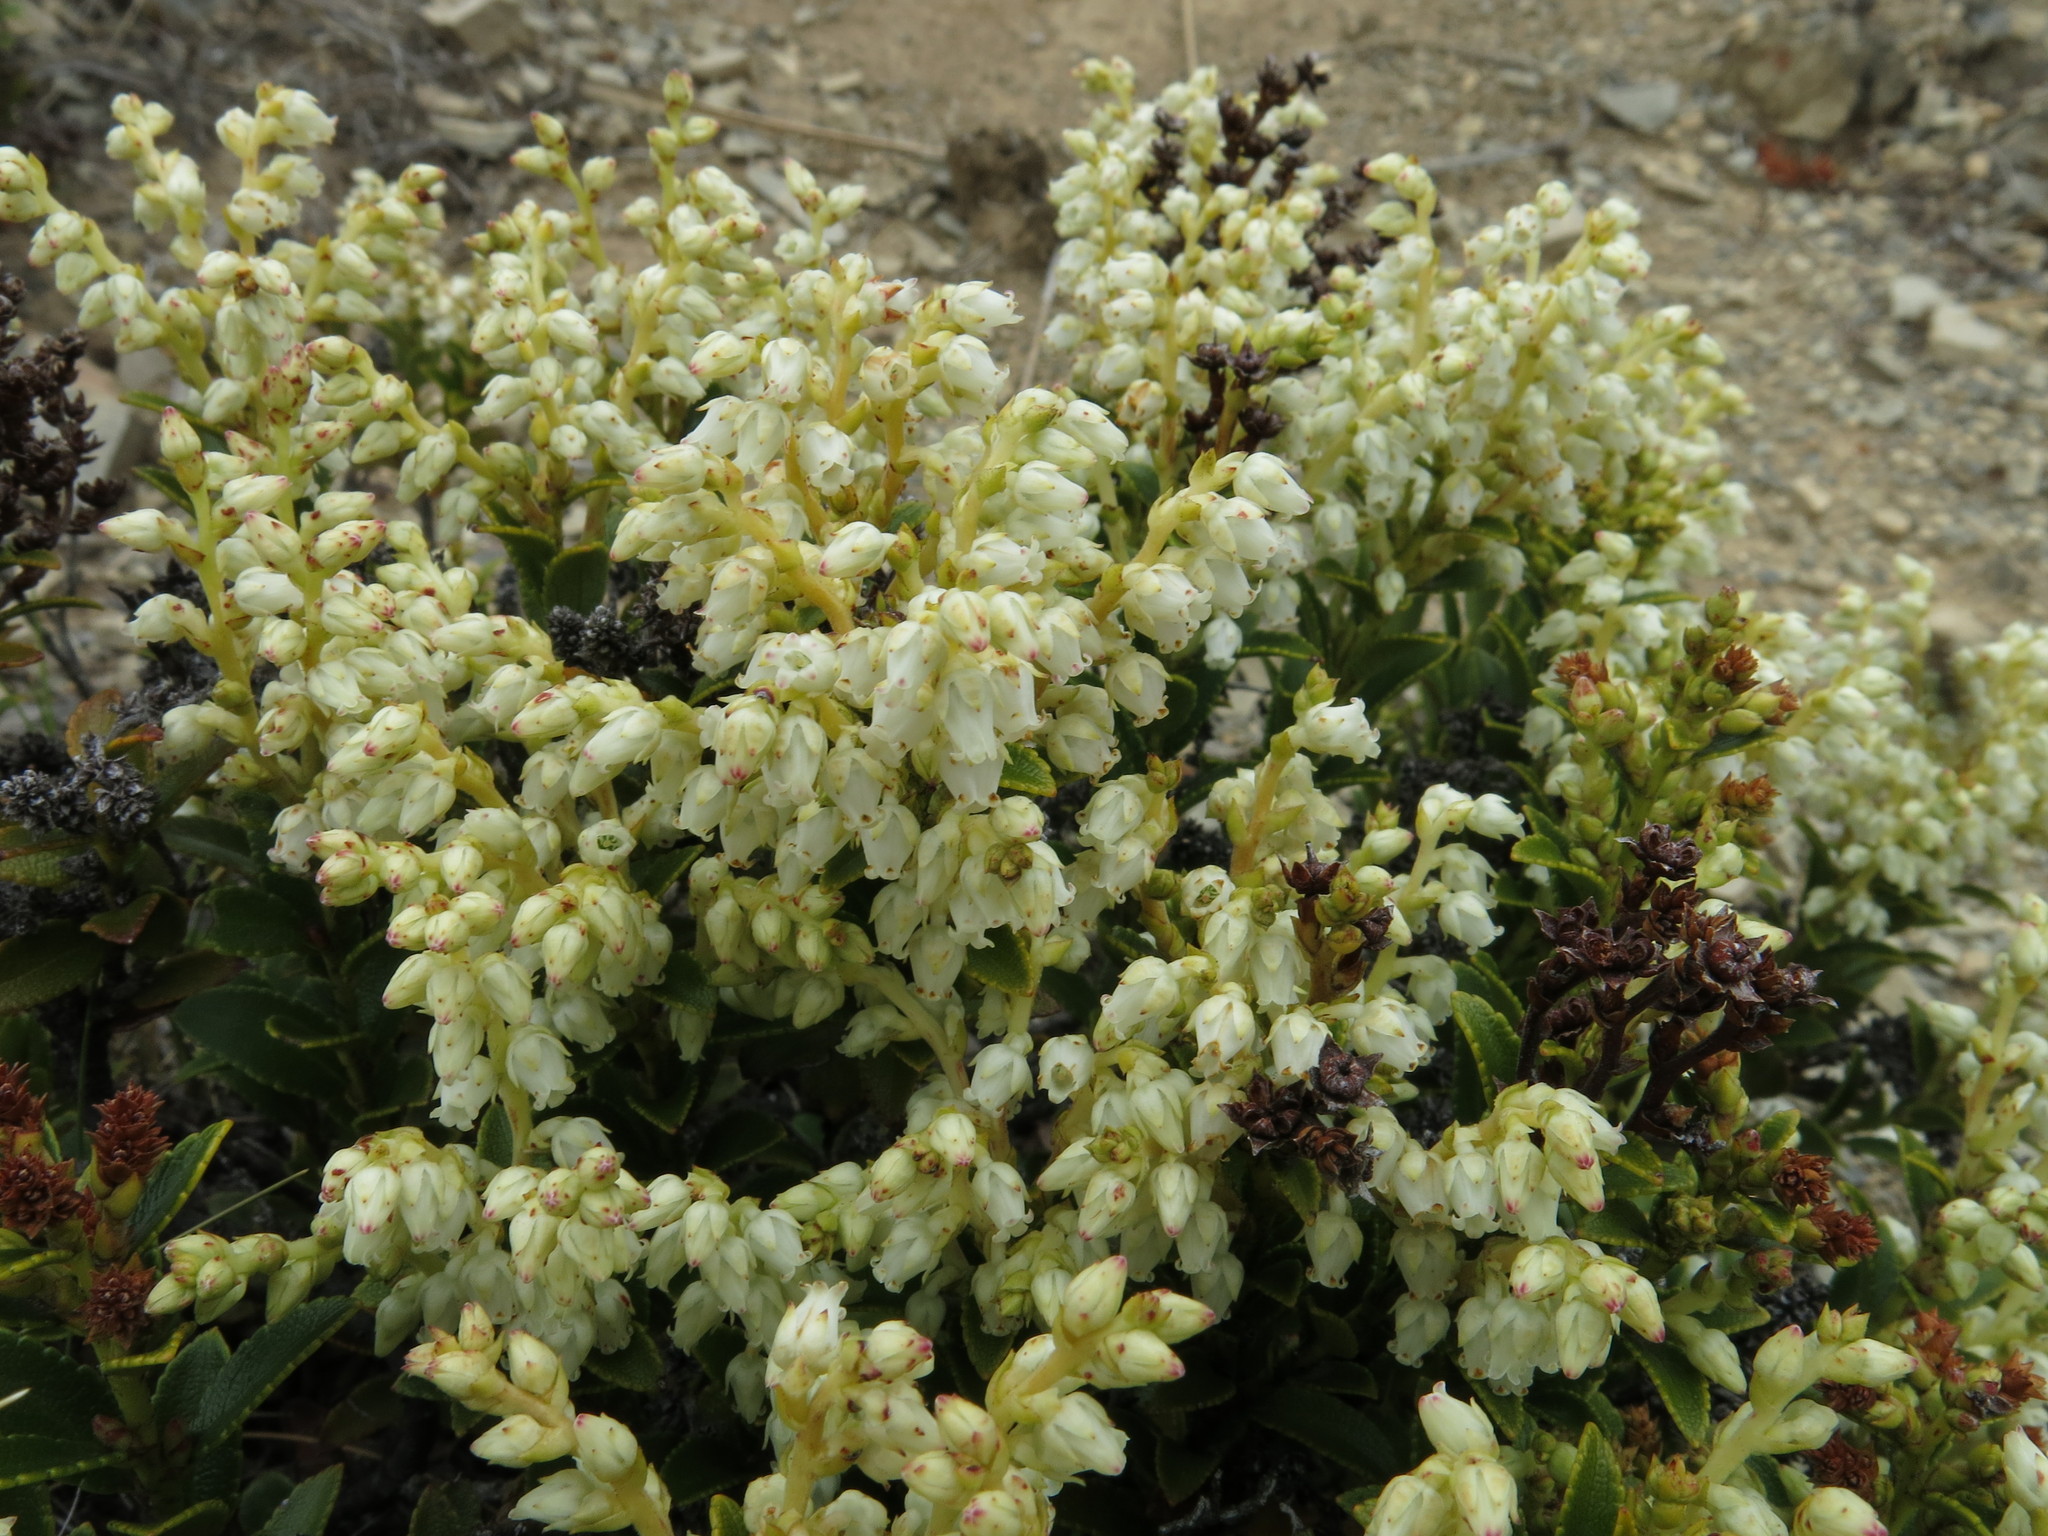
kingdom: Plantae
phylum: Tracheophyta
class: Magnoliopsida
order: Ericales
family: Ericaceae
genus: Gaultheria
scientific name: Gaultheria crassa
